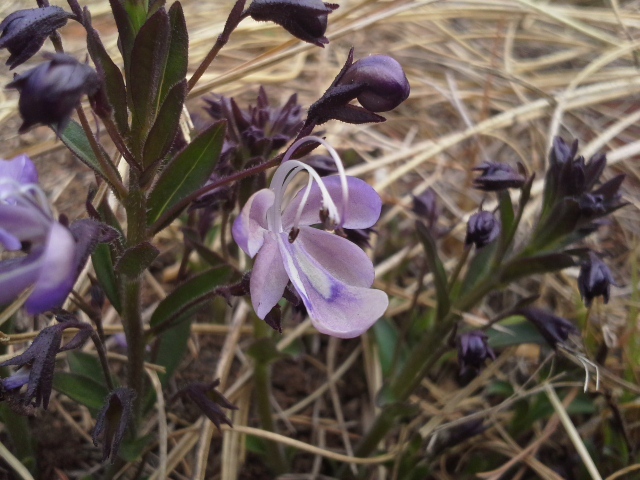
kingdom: Plantae
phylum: Tracheophyta
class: Magnoliopsida
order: Lamiales
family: Lamiaceae
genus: Rotheca
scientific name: Rotheca hirsuta
